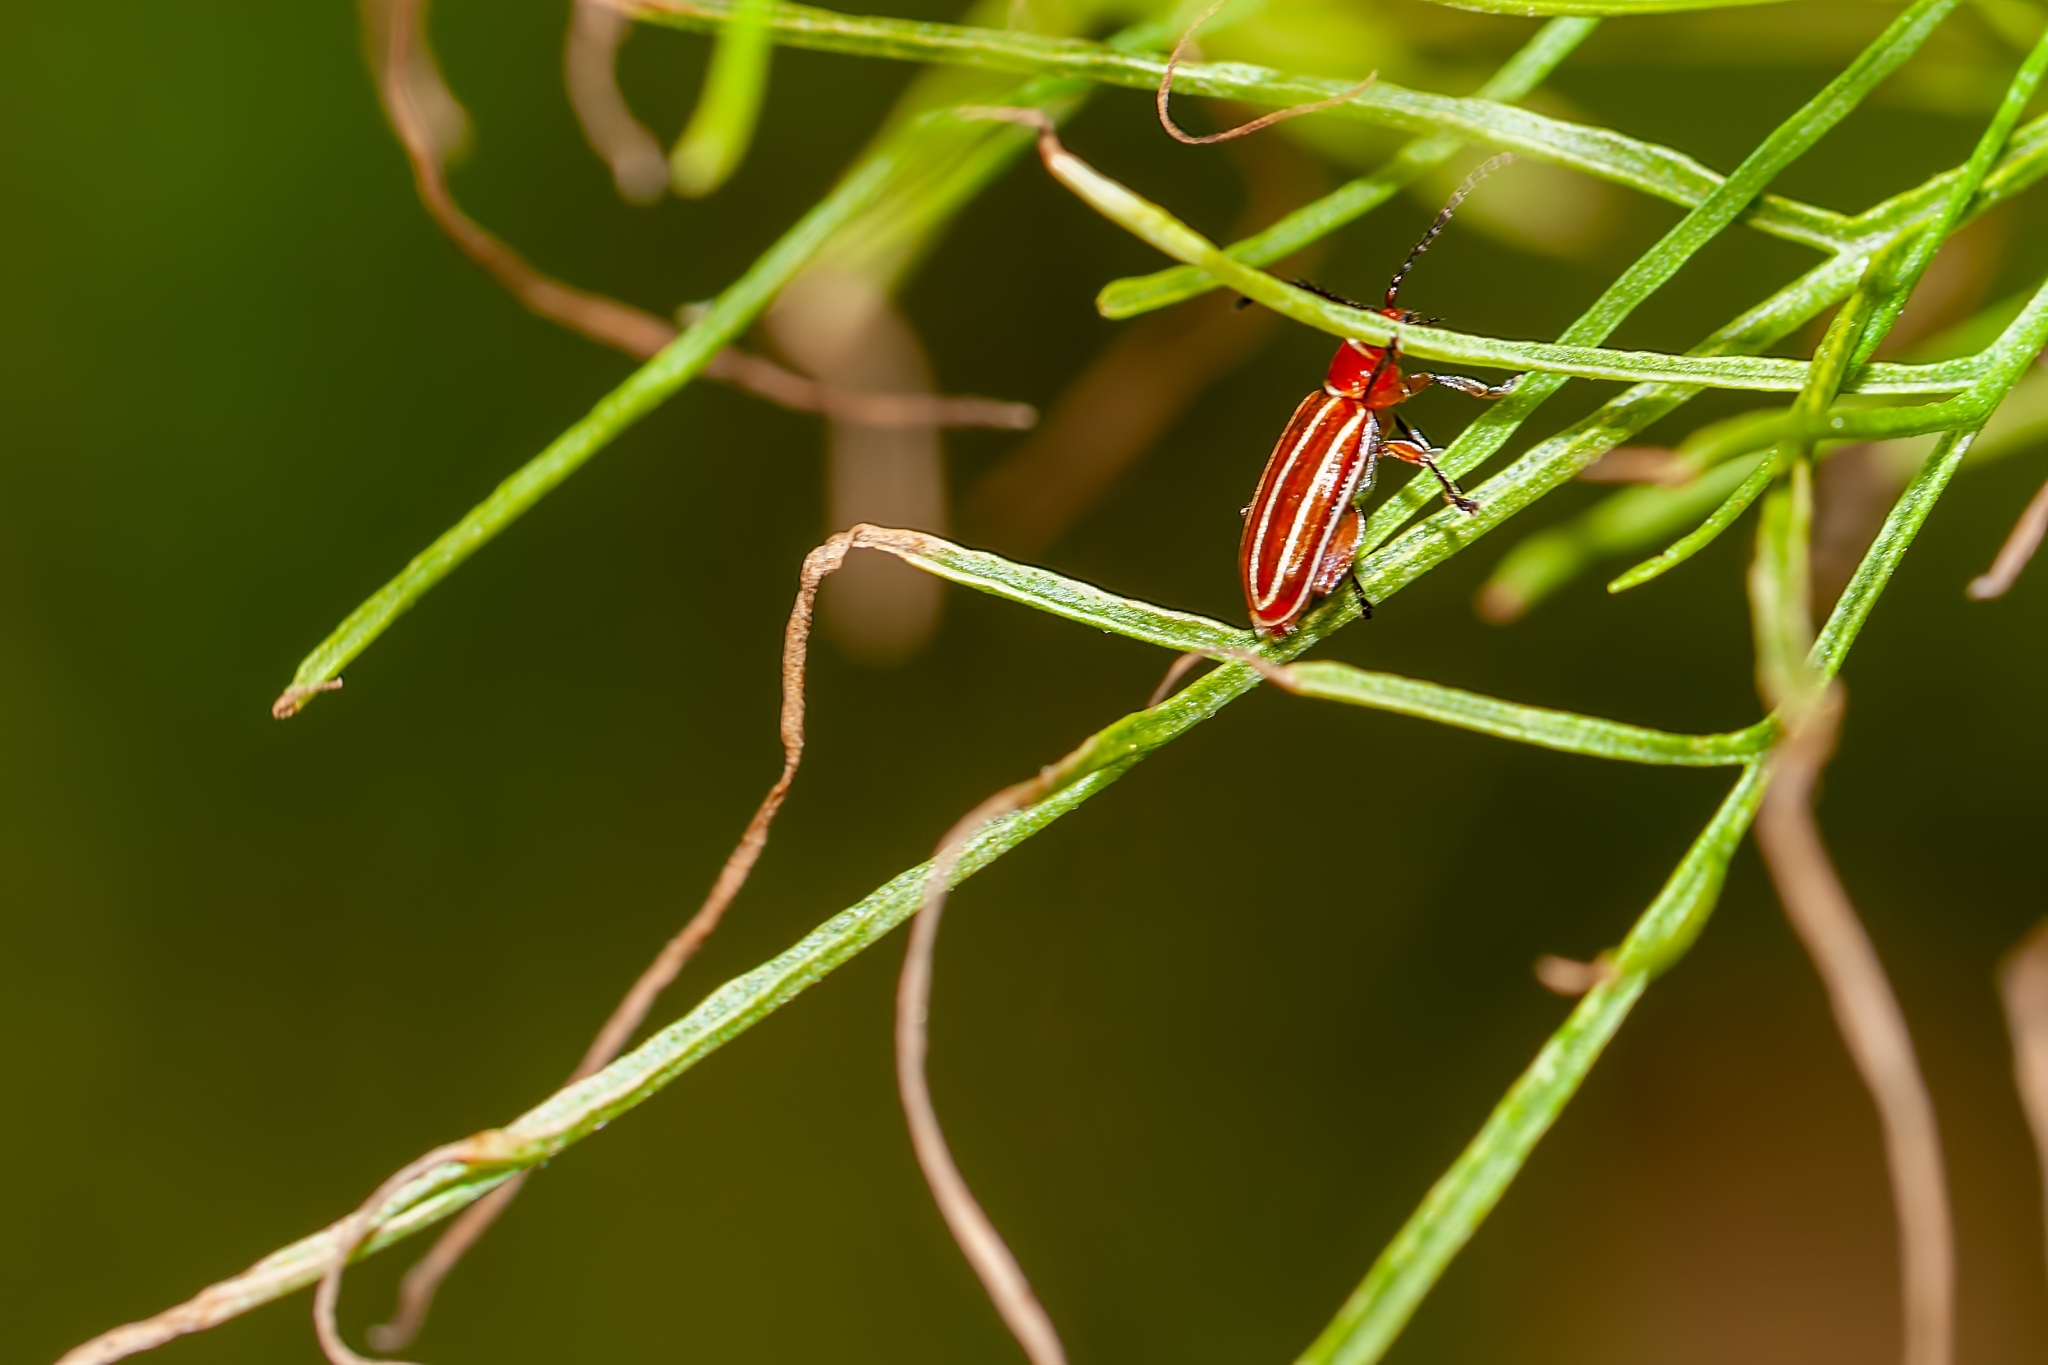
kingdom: Animalia
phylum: Arthropoda
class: Insecta
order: Coleoptera
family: Chrysomelidae
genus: Disonycha
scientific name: Disonycha conjugata
